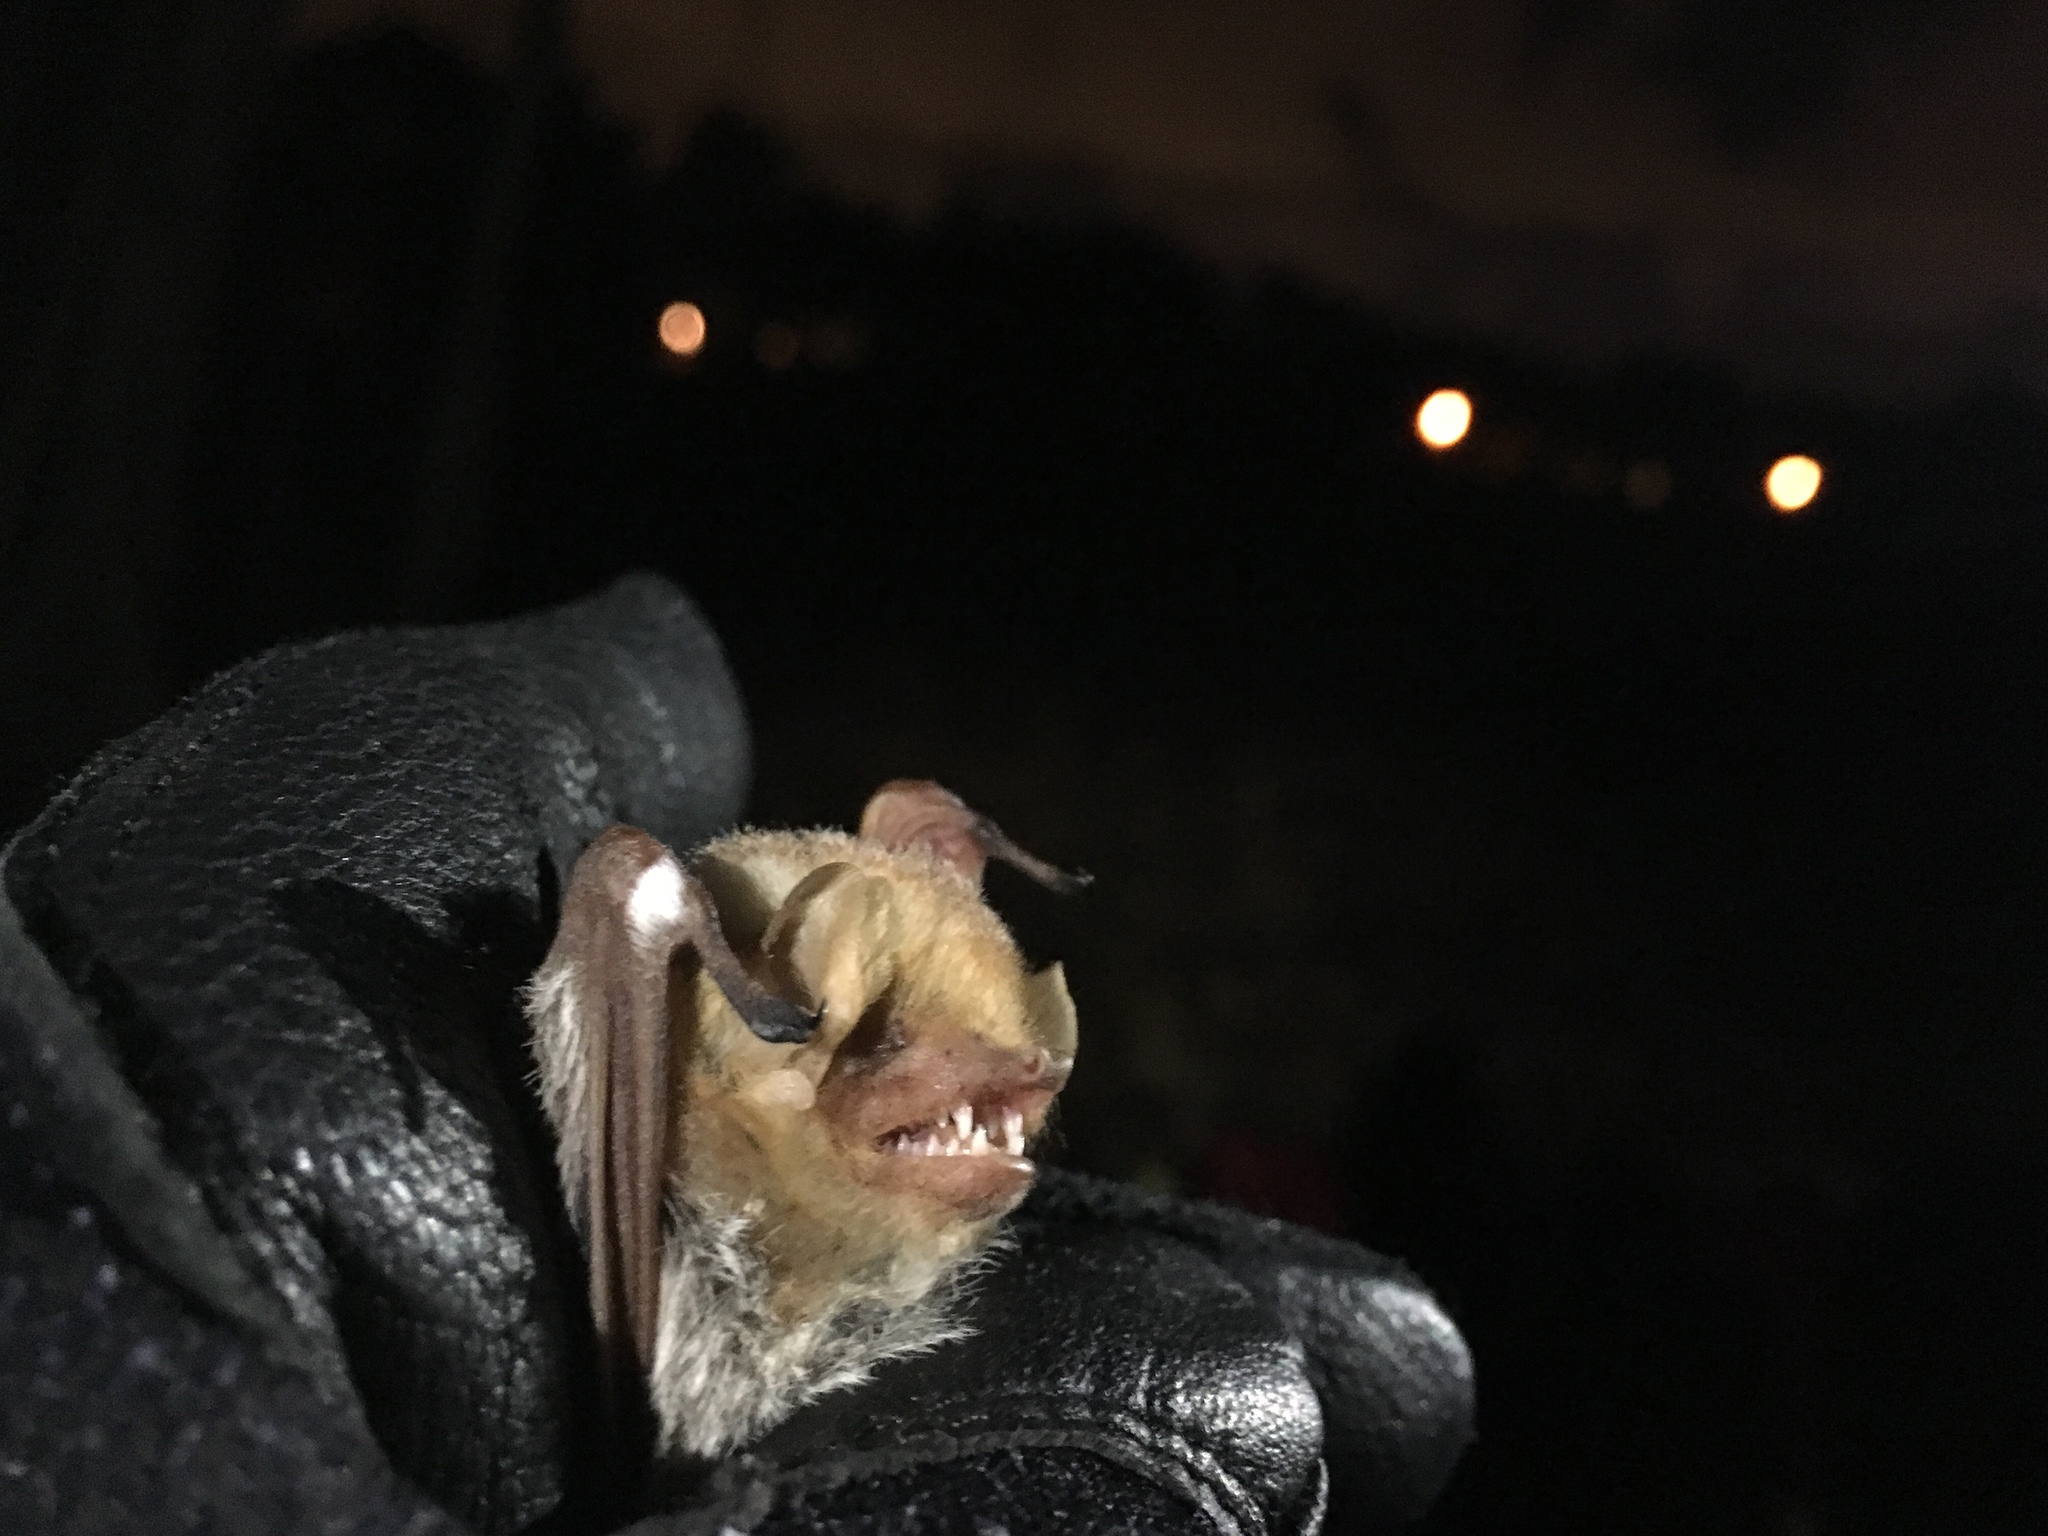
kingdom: Animalia
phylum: Chordata
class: Mammalia
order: Chiroptera
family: Vespertilionidae
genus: Lasiurus
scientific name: Lasiurus seminolus
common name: Seminole bat
